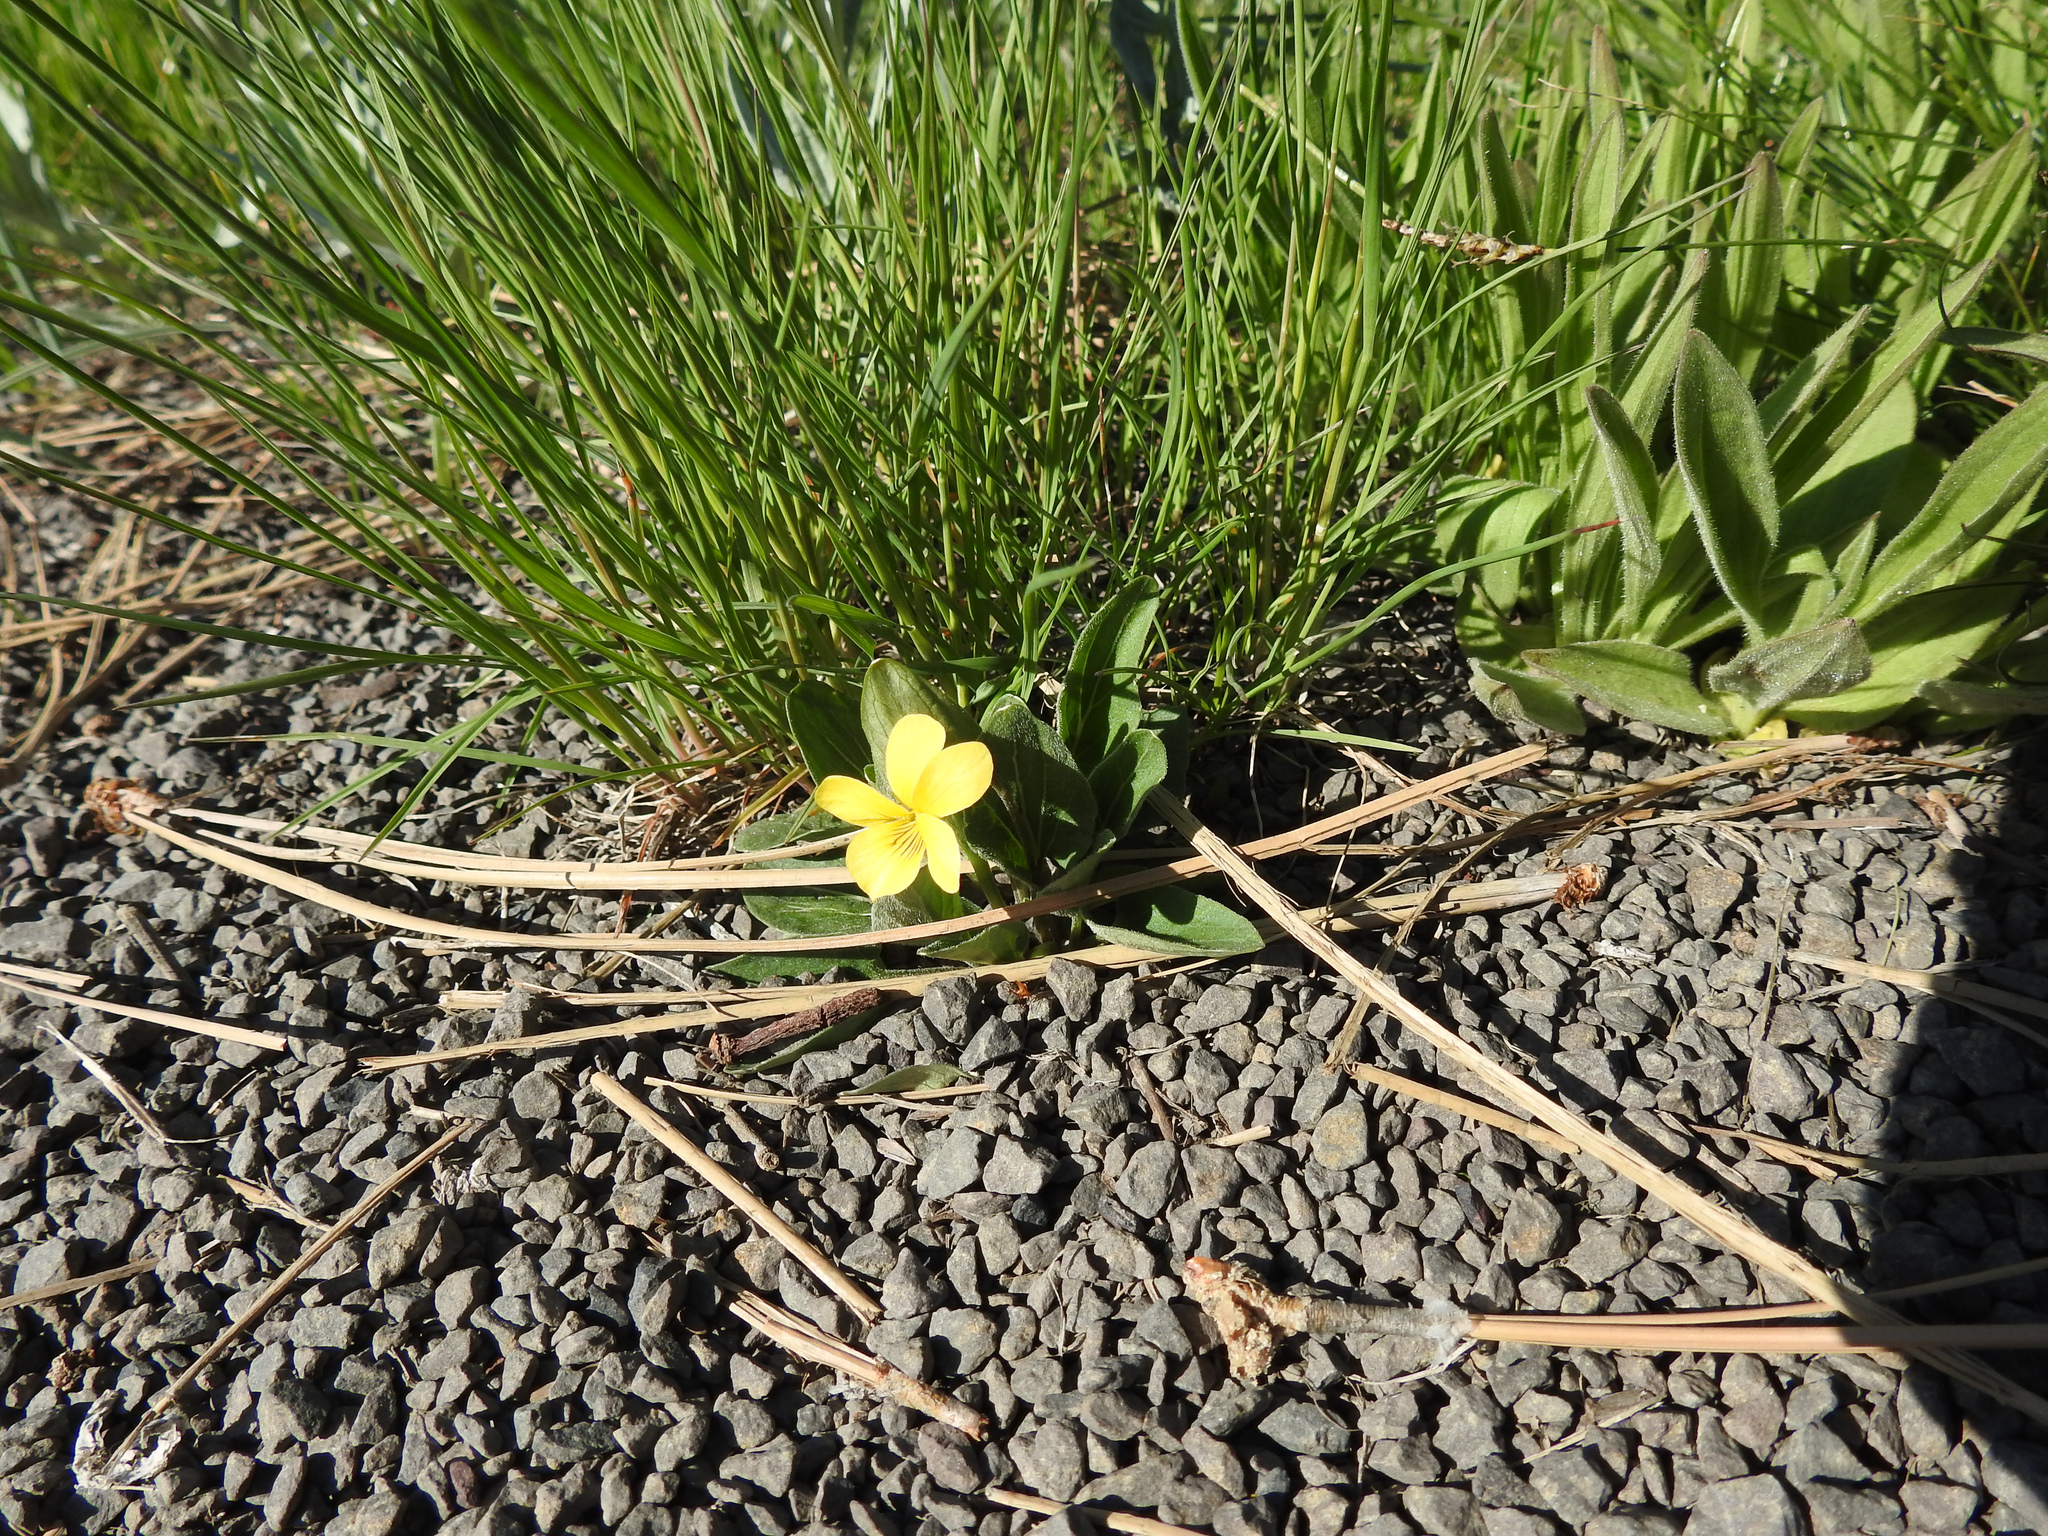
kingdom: Plantae
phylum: Tracheophyta
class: Magnoliopsida
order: Malpighiales
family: Violaceae
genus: Viola
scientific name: Viola nuttallii
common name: Yellow prairie violet
